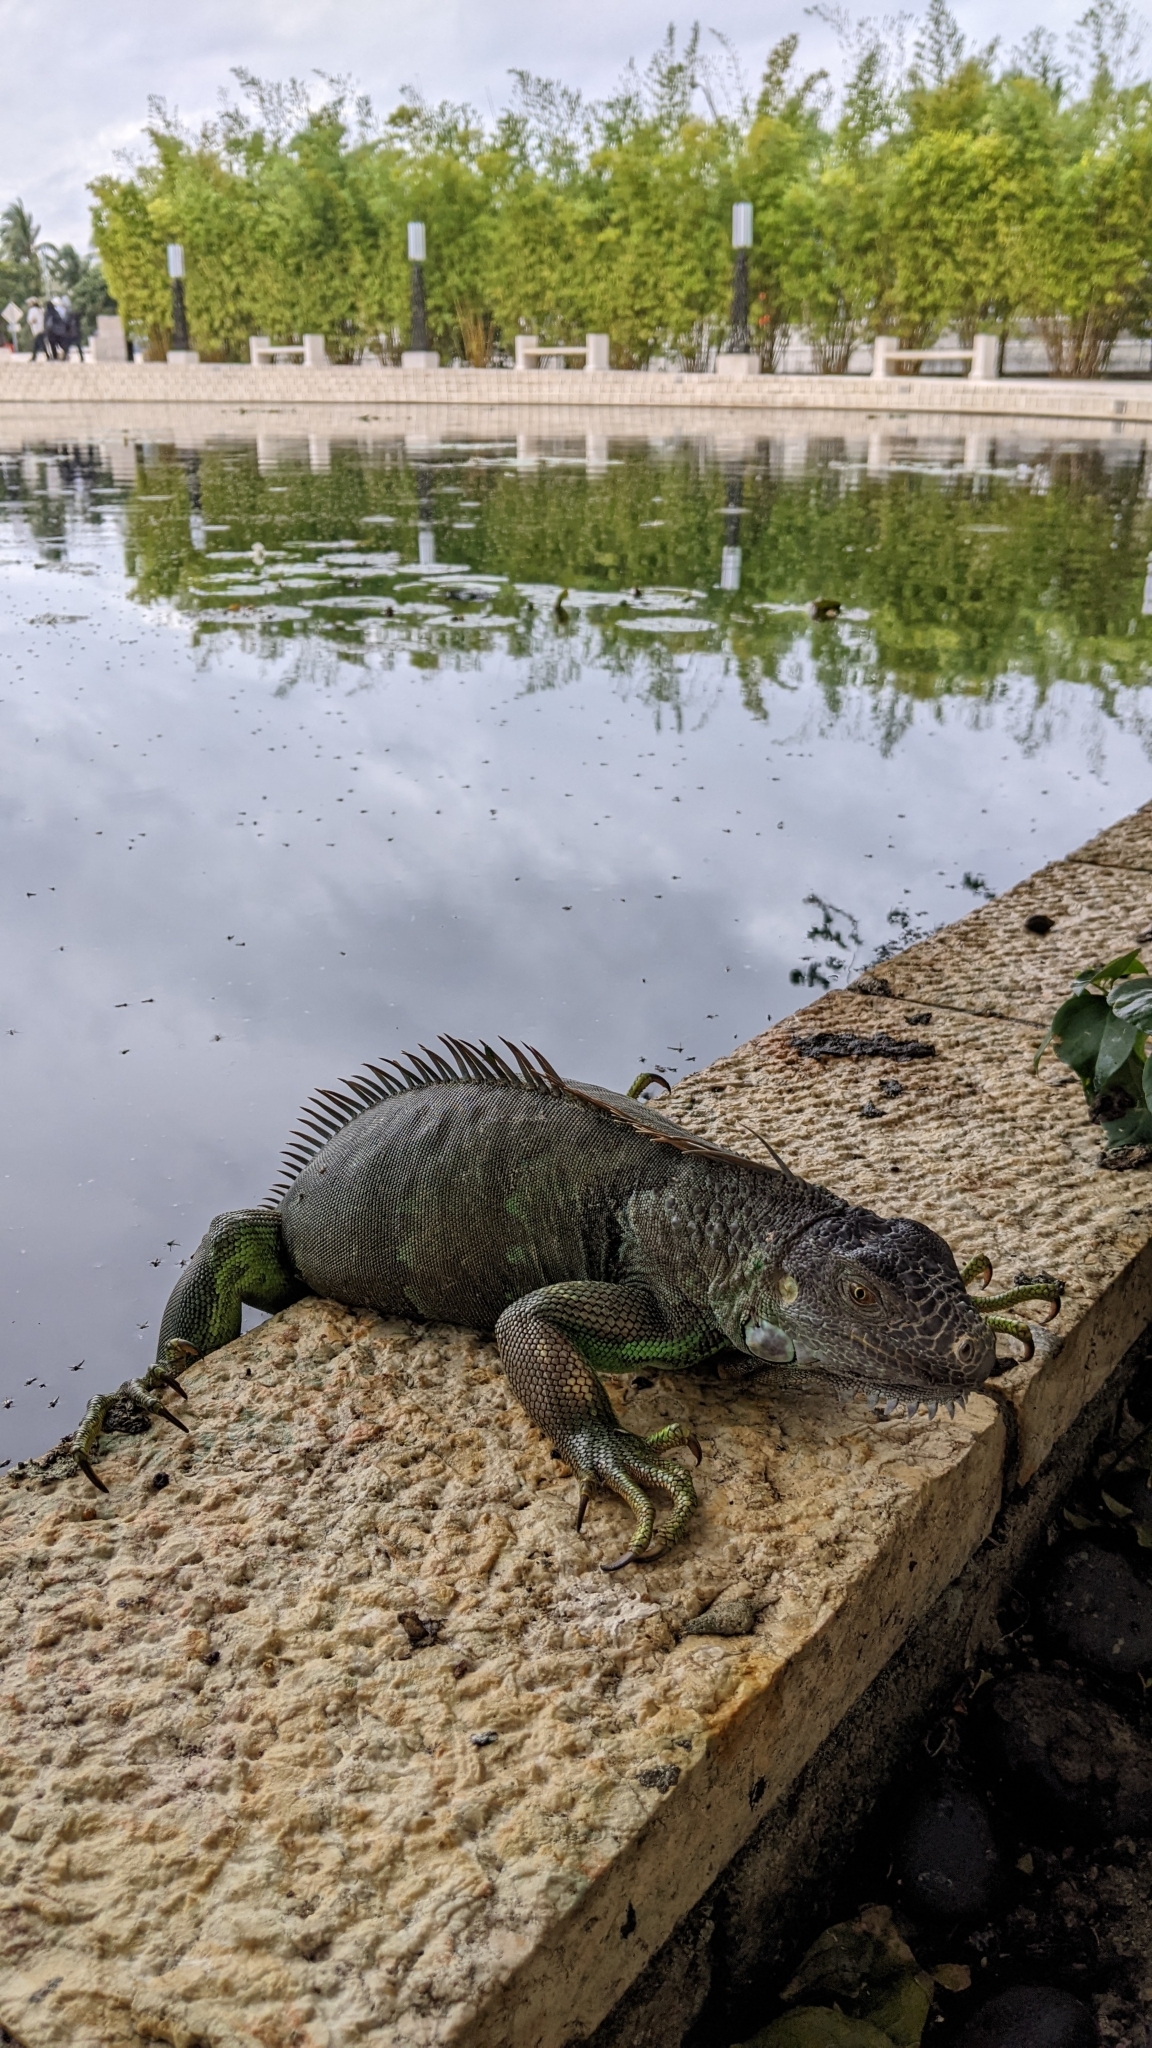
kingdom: Animalia
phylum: Chordata
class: Squamata
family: Iguanidae
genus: Iguana
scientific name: Iguana iguana
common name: Green iguana
